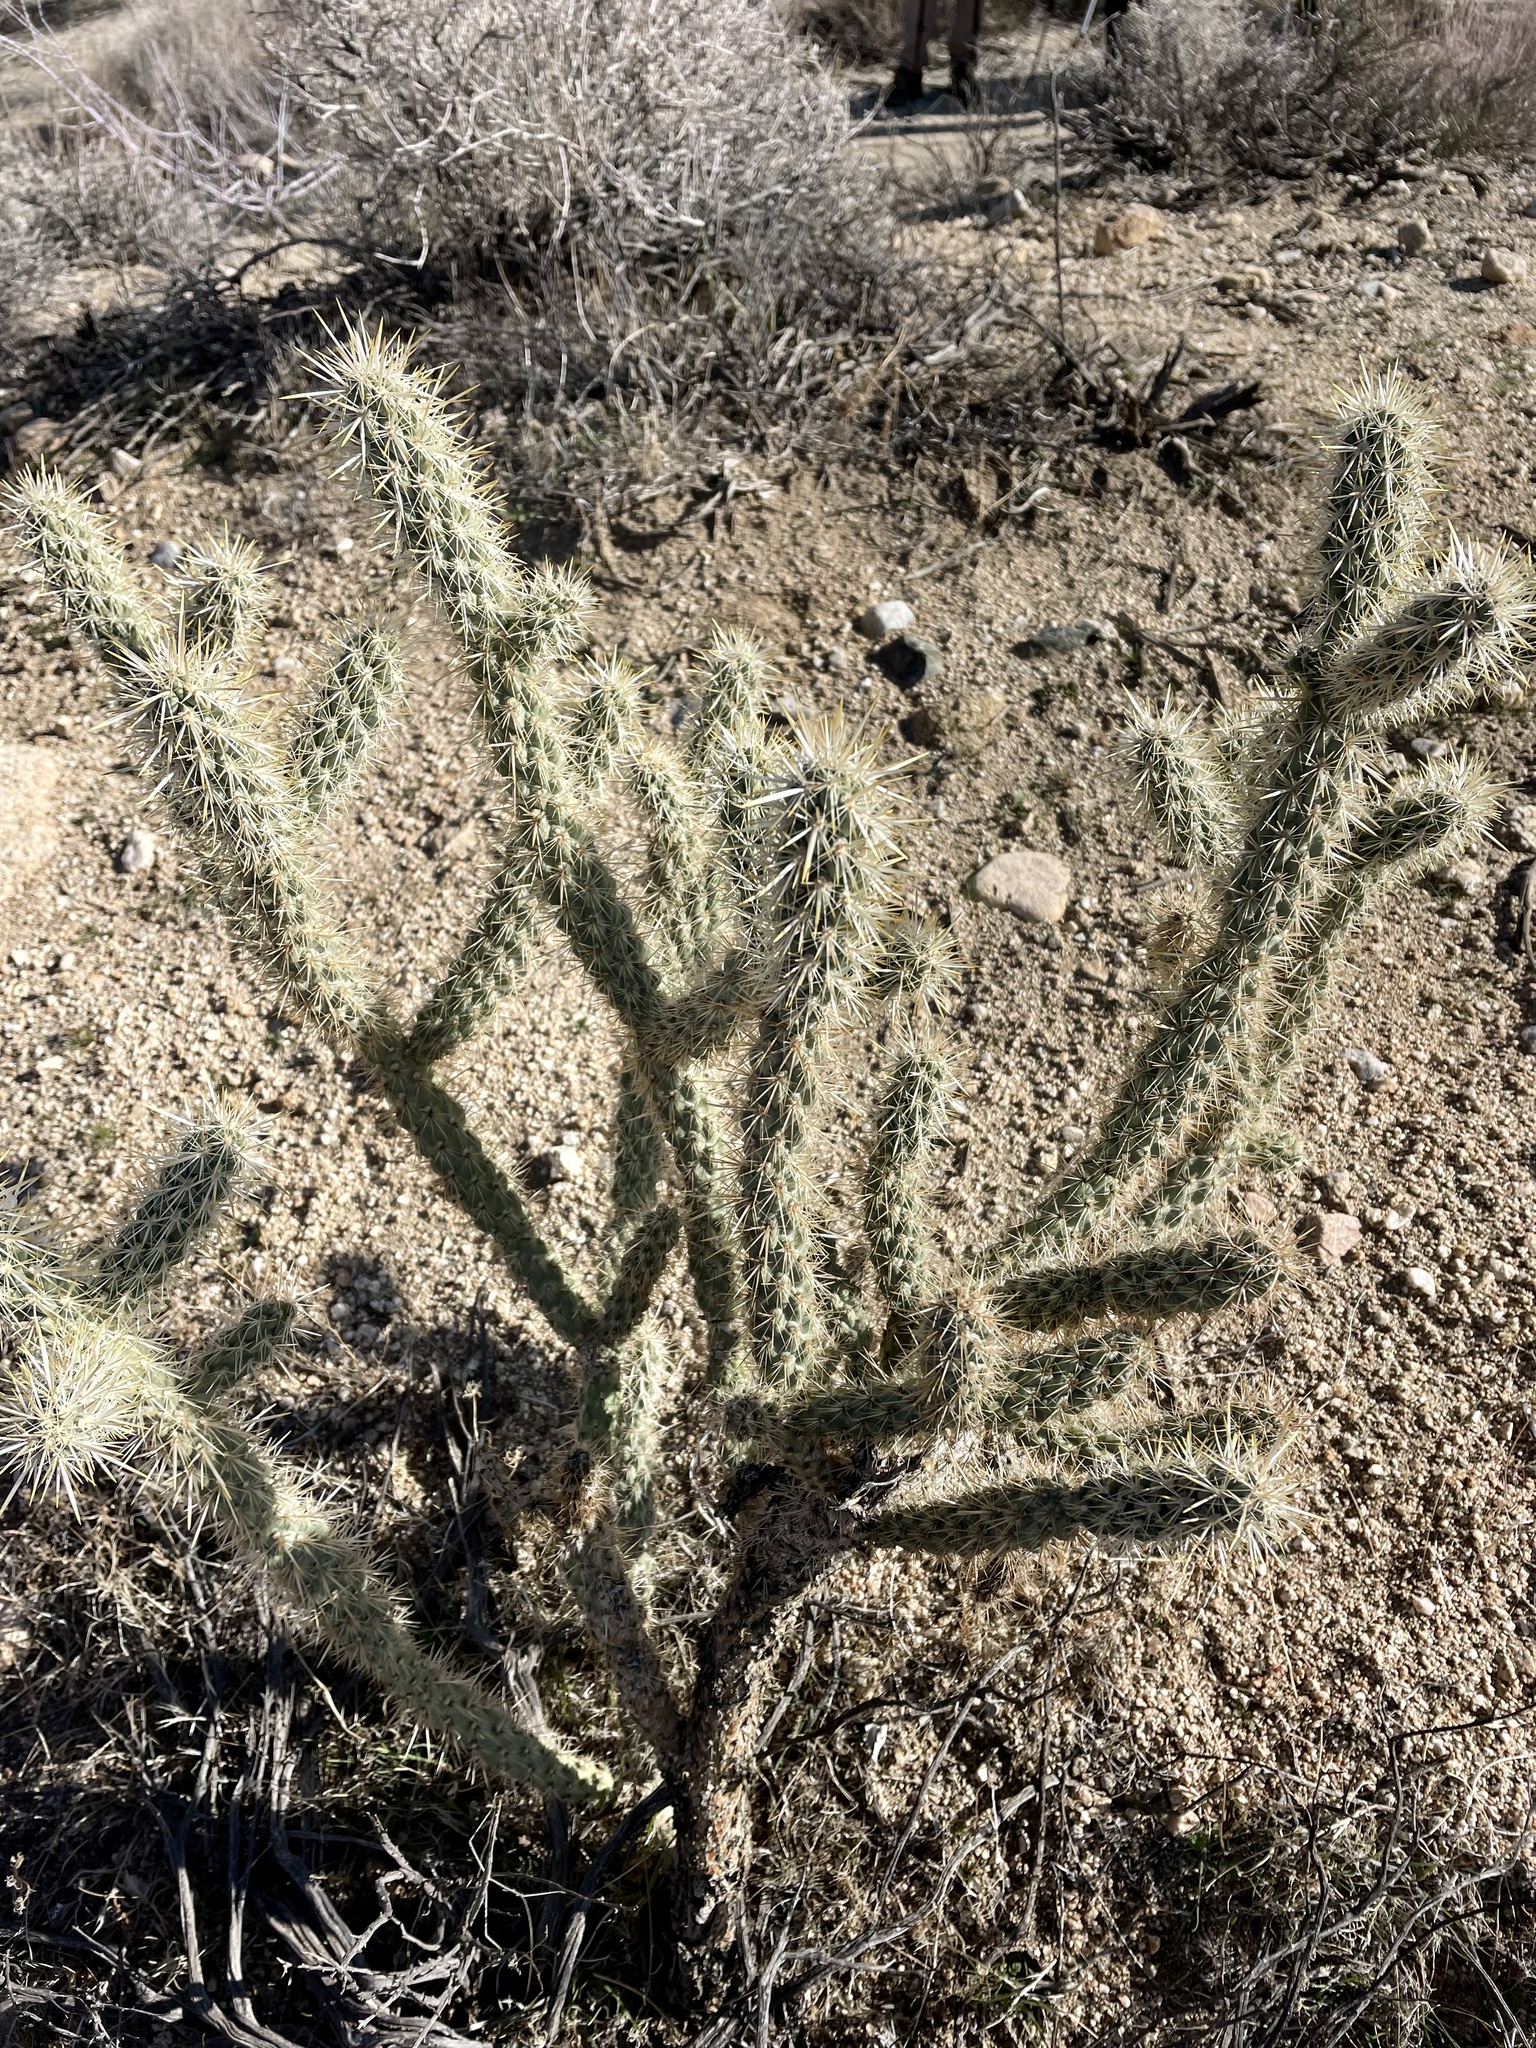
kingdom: Plantae
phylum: Tracheophyta
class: Magnoliopsida
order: Caryophyllales
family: Cactaceae
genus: Cylindropuntia
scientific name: Cylindropuntia echinocarpa
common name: Ground cholla
